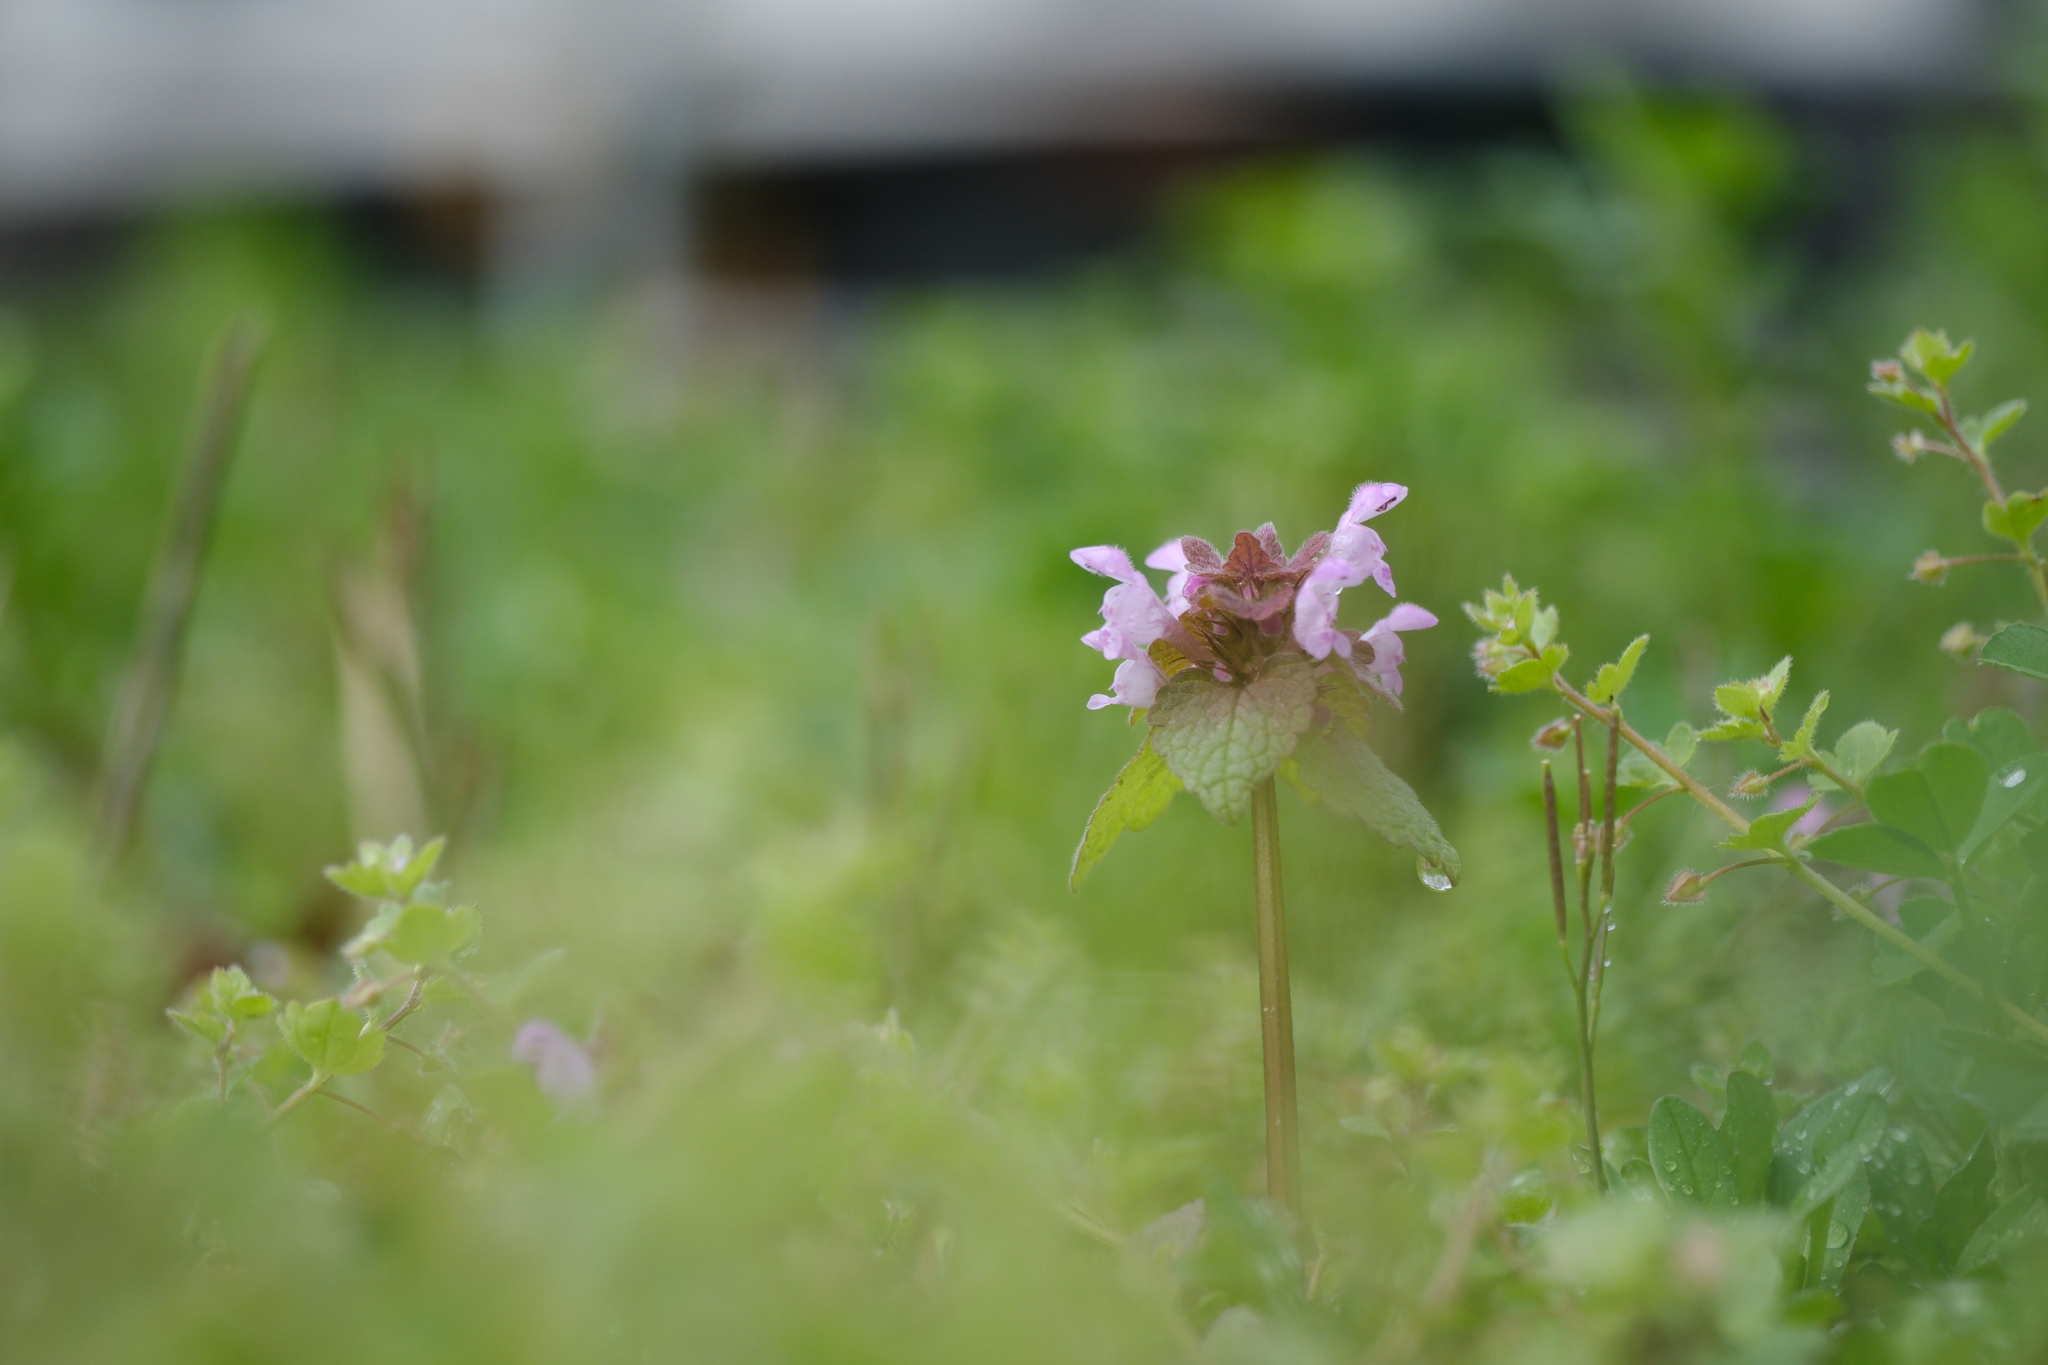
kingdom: Plantae
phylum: Tracheophyta
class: Magnoliopsida
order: Lamiales
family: Lamiaceae
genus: Lamium
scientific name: Lamium purpureum
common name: Red dead-nettle
